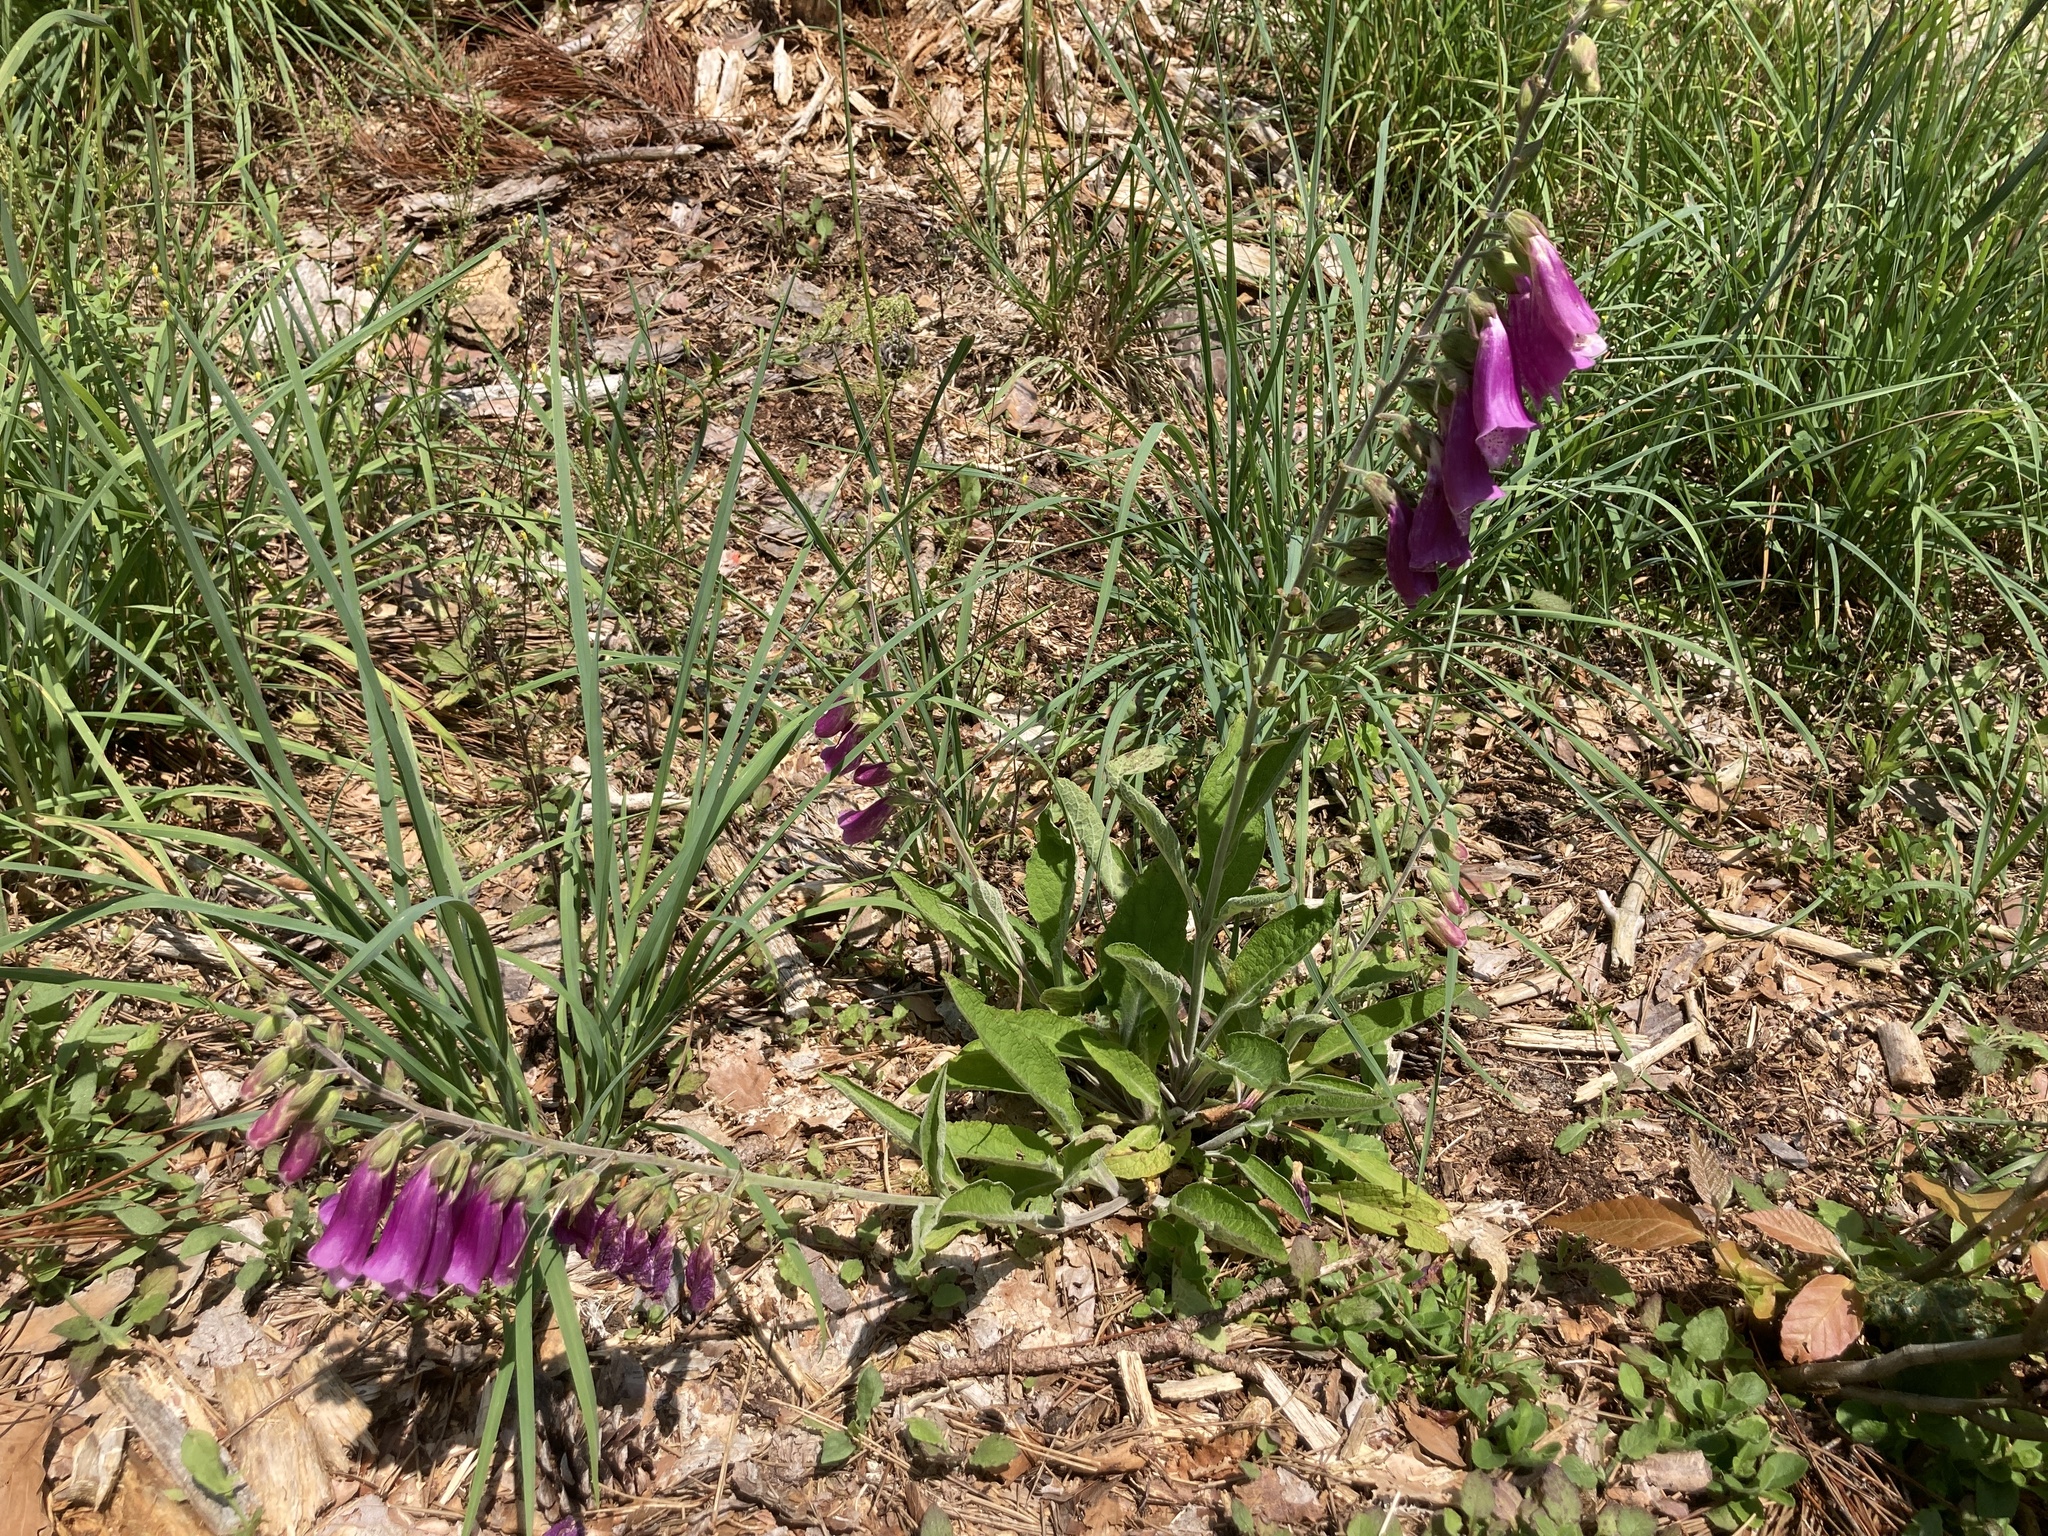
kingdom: Plantae
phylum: Tracheophyta
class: Magnoliopsida
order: Lamiales
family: Plantaginaceae
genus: Digitalis
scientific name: Digitalis purpurea
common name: Foxglove
